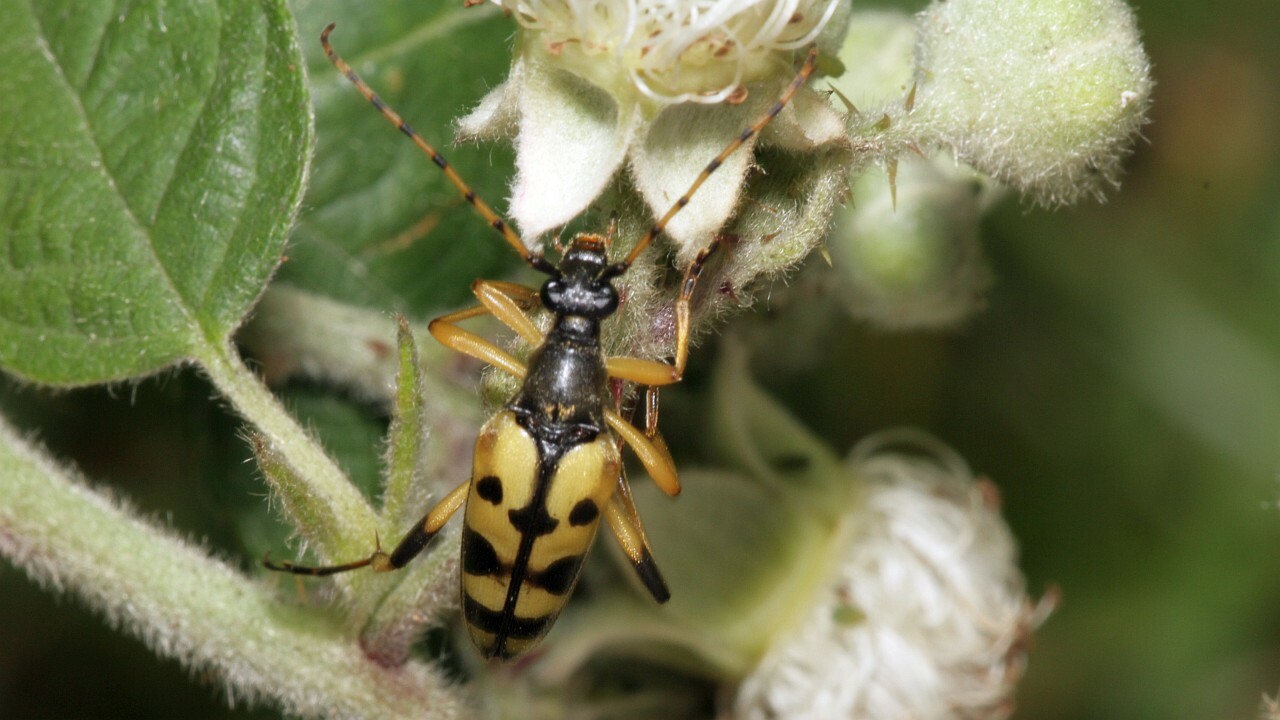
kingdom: Animalia
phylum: Arthropoda
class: Insecta
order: Coleoptera
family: Cerambycidae
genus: Rutpela
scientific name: Rutpela maculata
